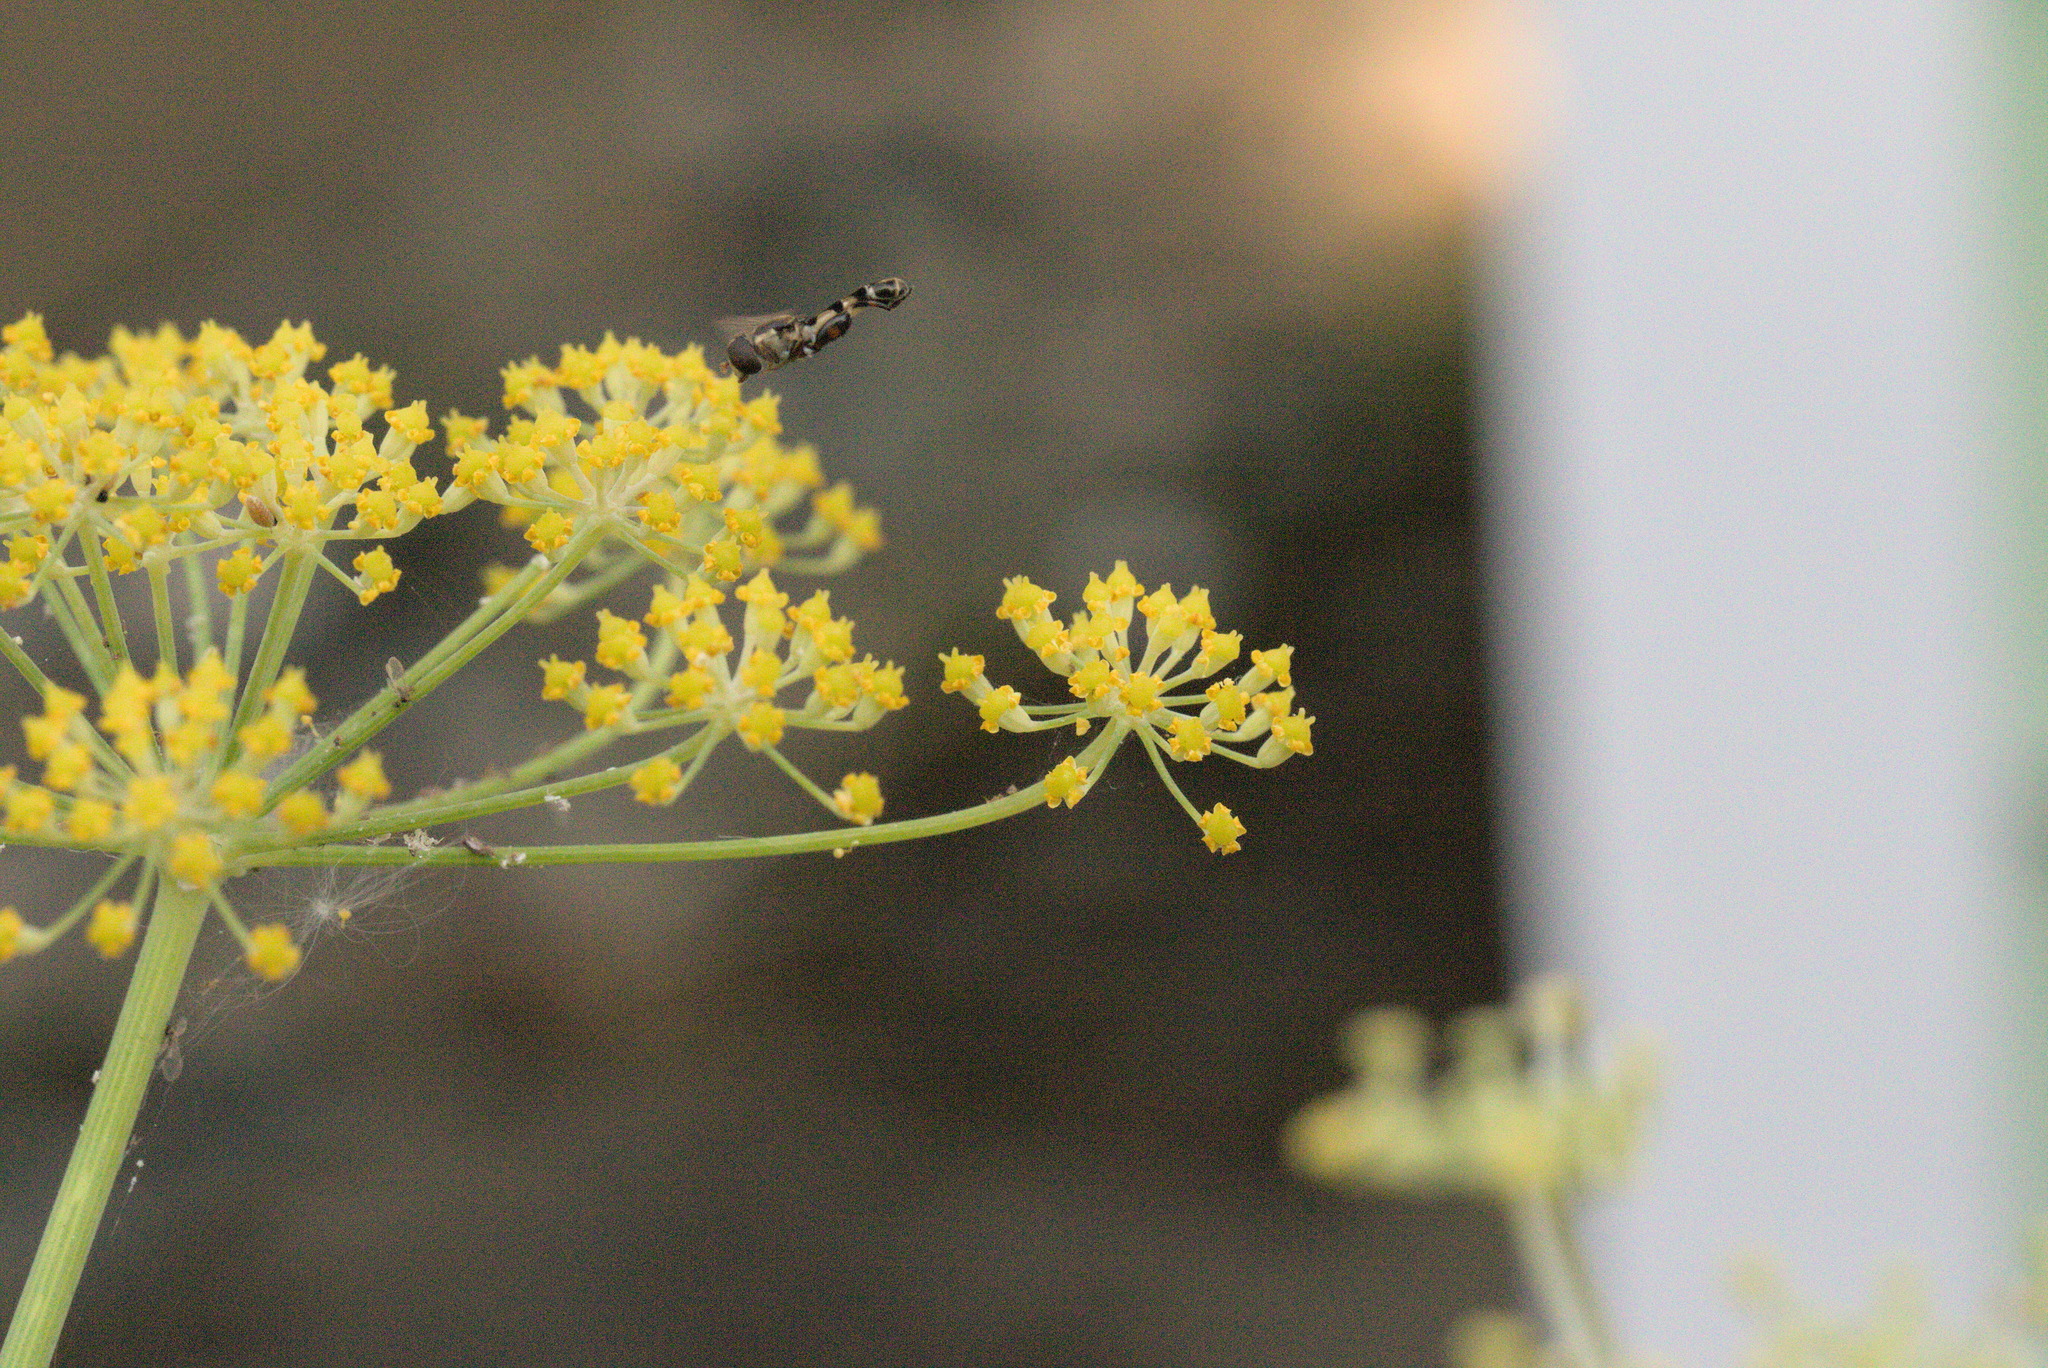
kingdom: Animalia
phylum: Arthropoda
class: Insecta
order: Diptera
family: Syrphidae
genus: Syritta
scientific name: Syritta pipiens
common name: Hover fly
